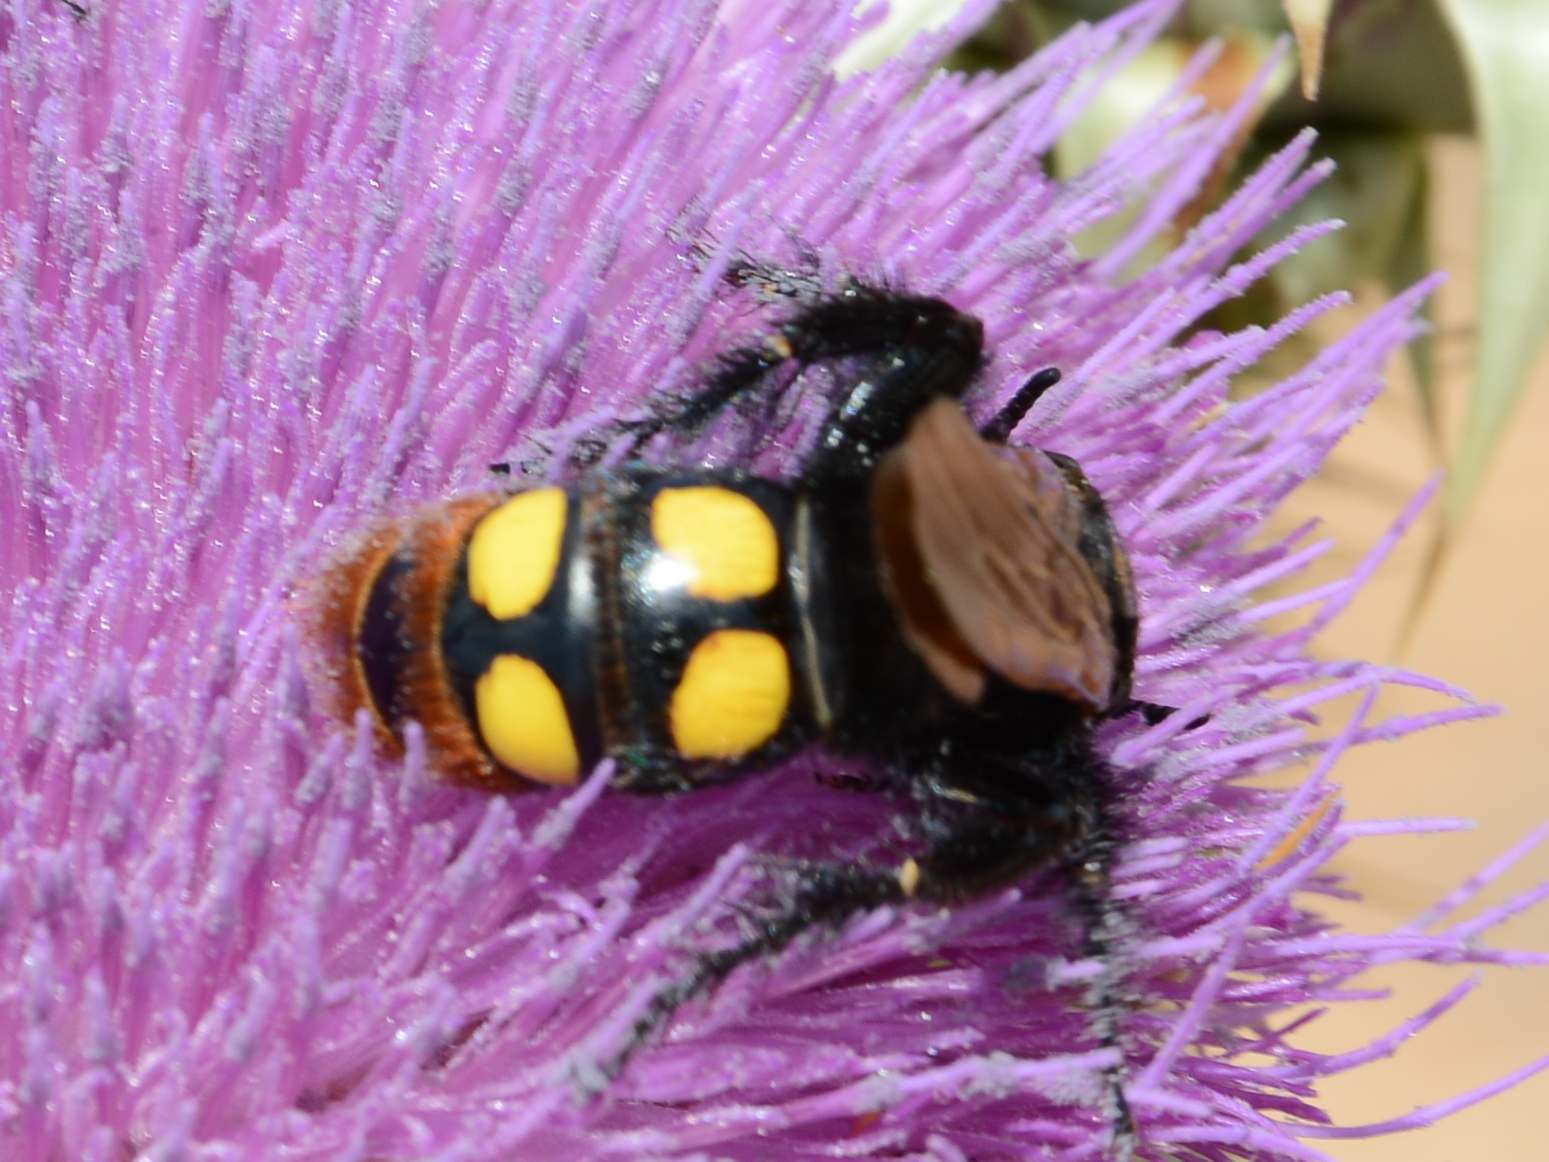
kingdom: Animalia
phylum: Arthropoda
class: Insecta
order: Hymenoptera
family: Scoliidae
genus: Megascolia
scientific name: Megascolia maculata
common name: Mammoth wasp
